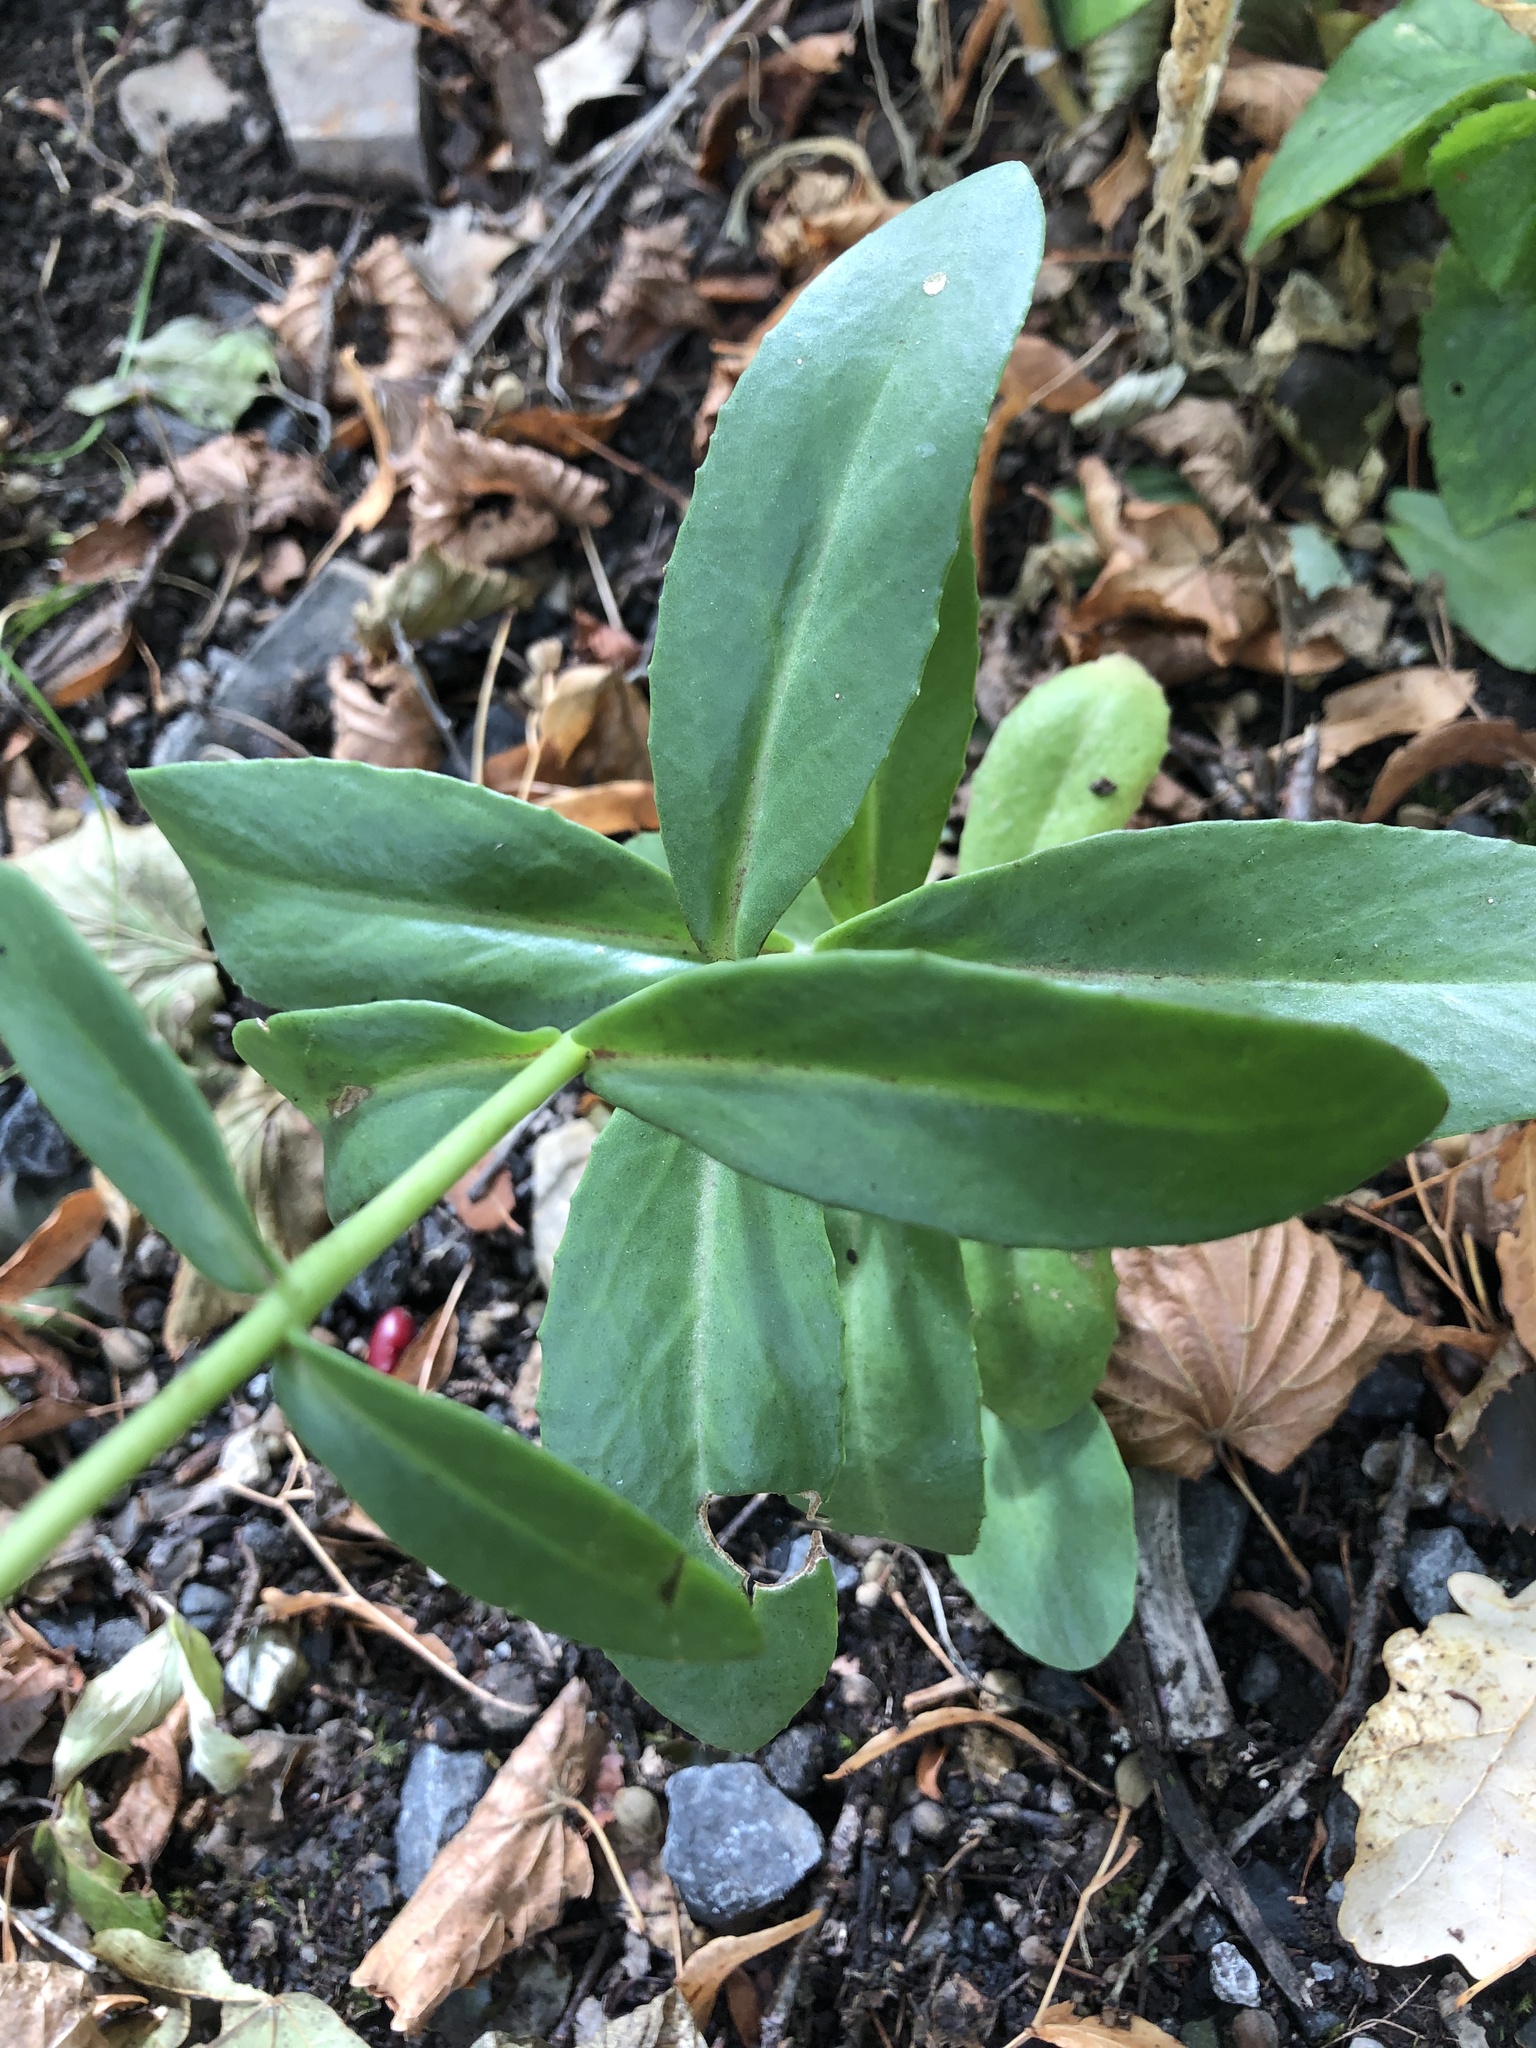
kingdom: Plantae
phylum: Tracheophyta
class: Magnoliopsida
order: Saxifragales
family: Crassulaceae
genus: Hylotelephium
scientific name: Hylotelephium maximum
